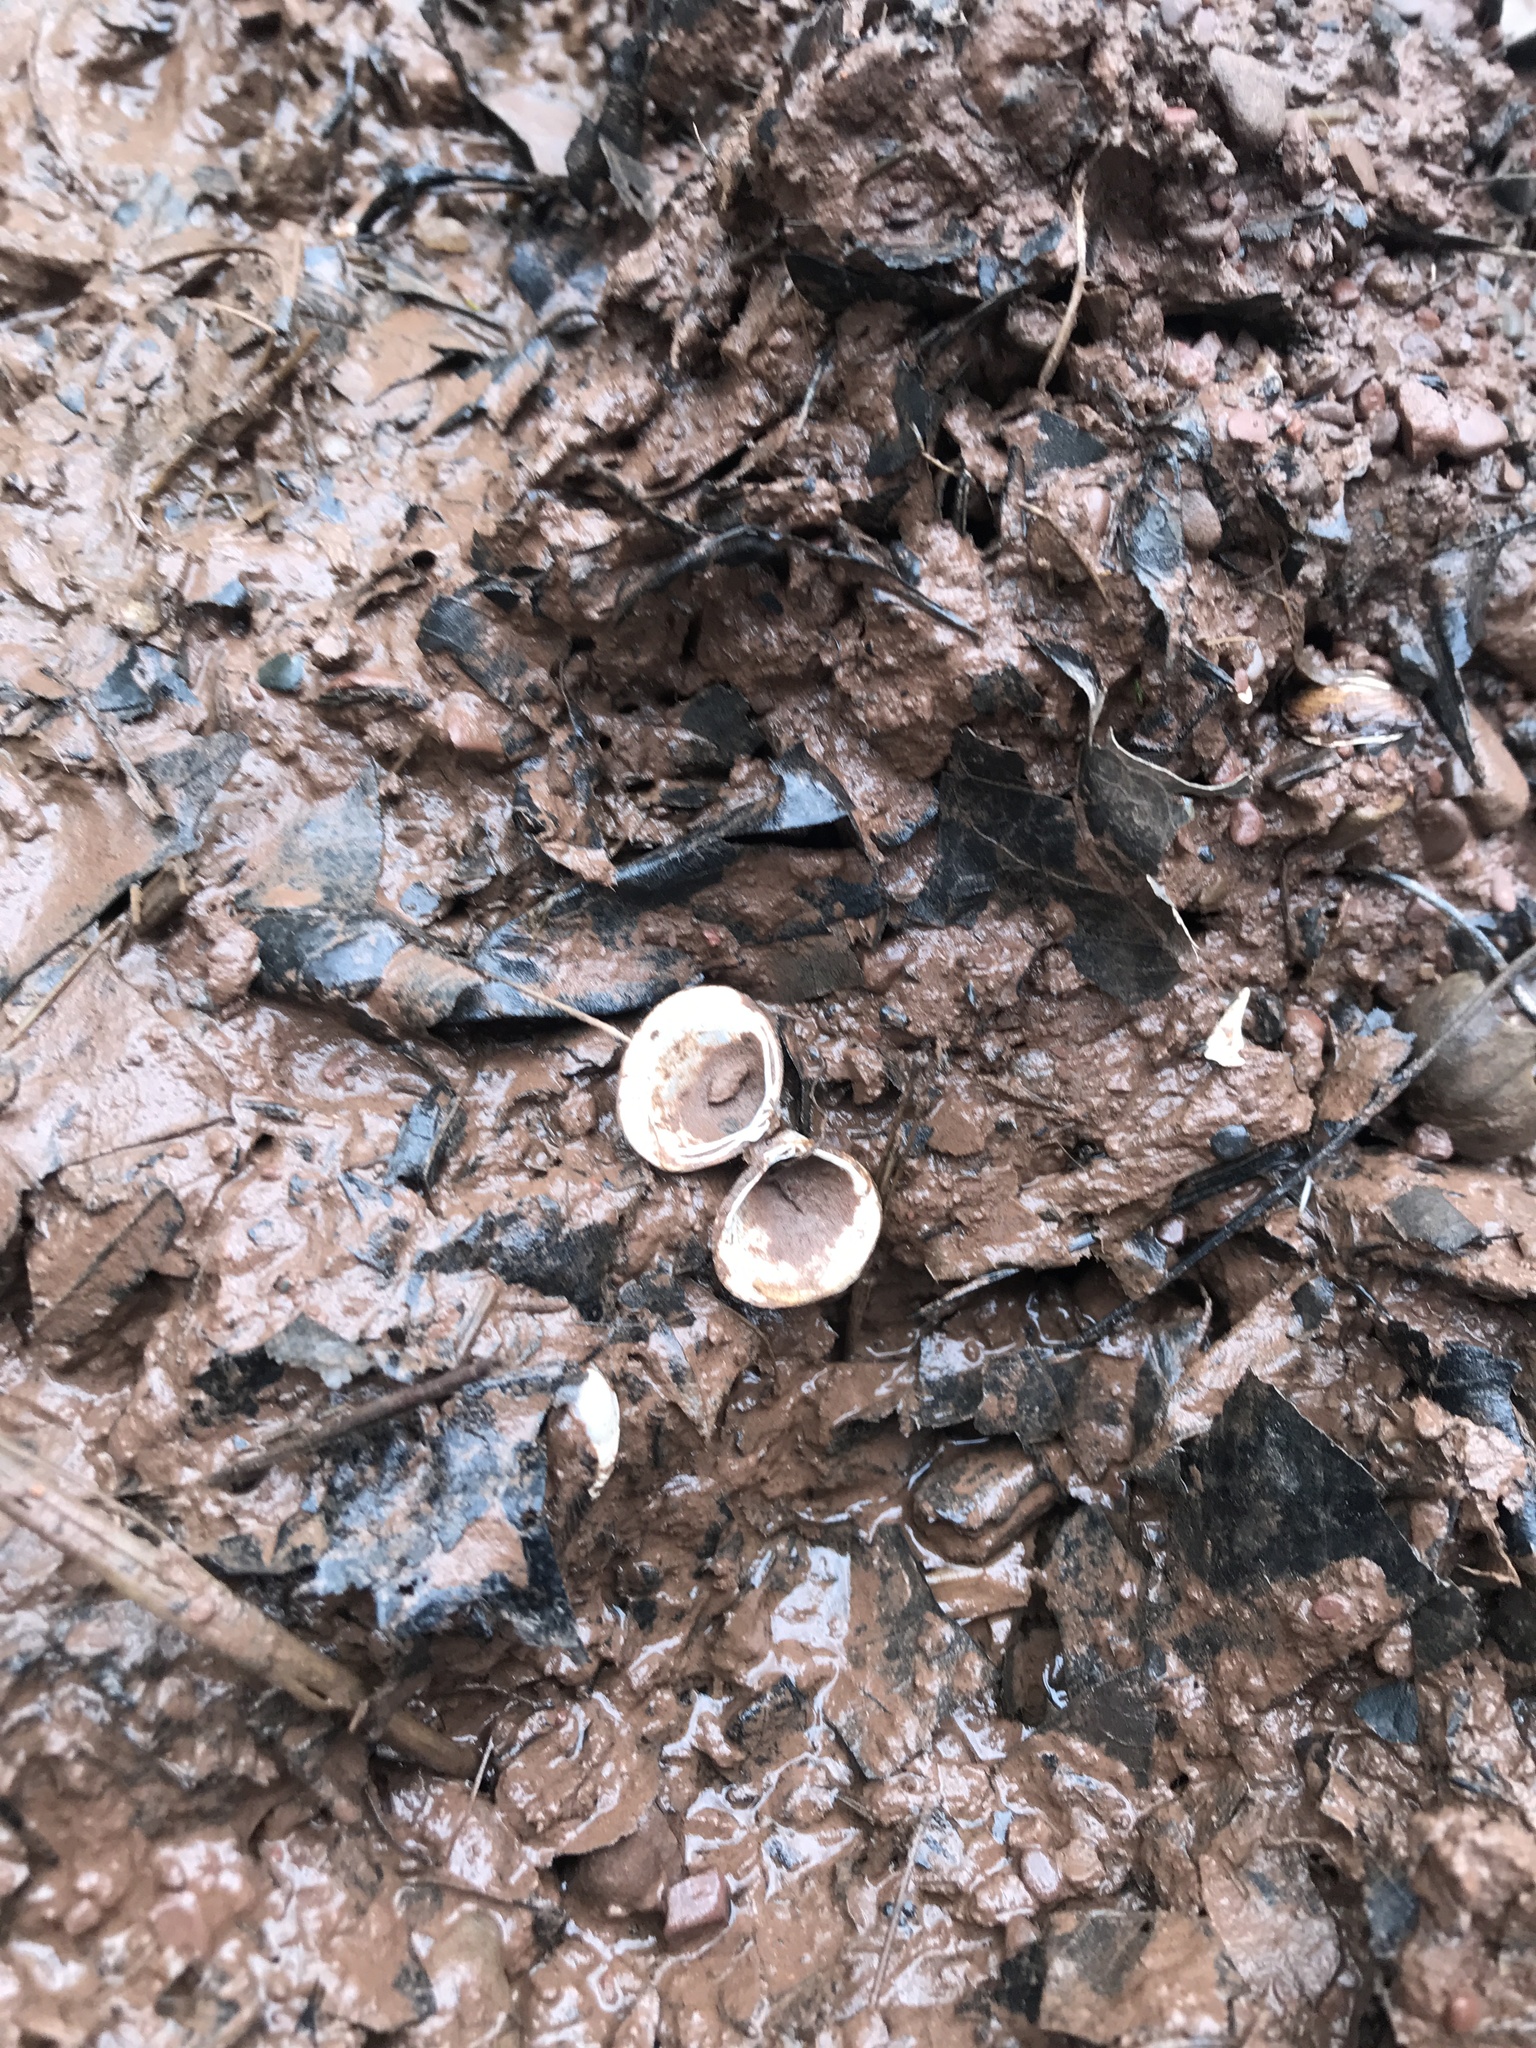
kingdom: Animalia
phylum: Mollusca
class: Bivalvia
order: Venerida
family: Cyrenidae
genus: Corbicula
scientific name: Corbicula fluminea
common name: Asian clam
